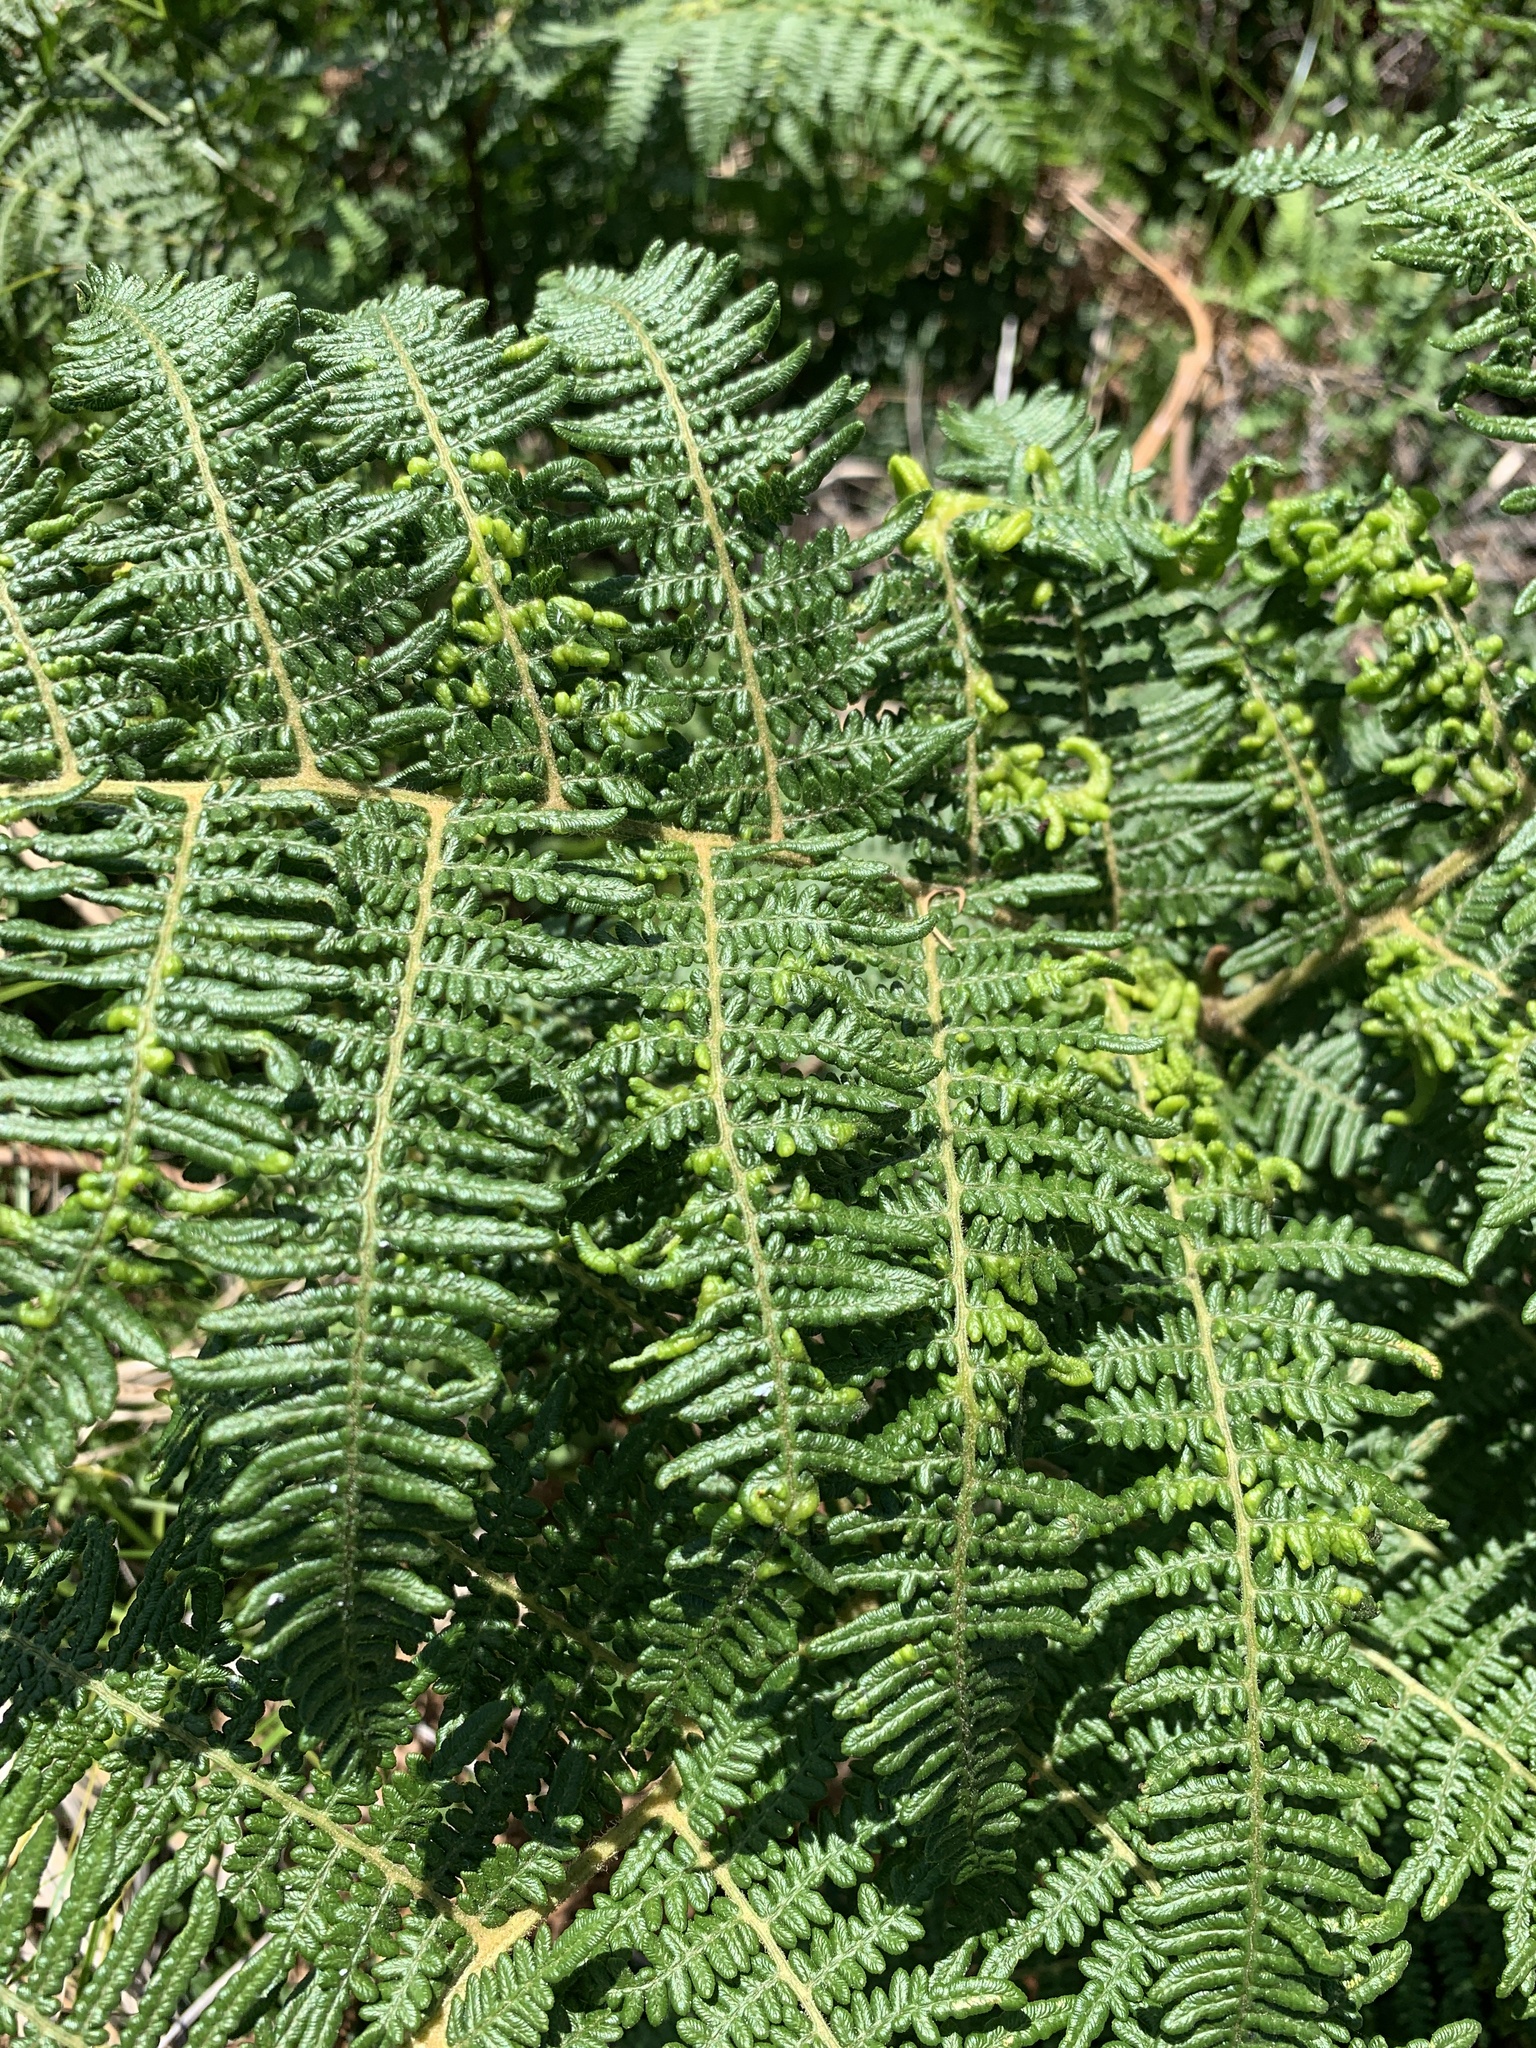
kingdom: Plantae
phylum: Tracheophyta
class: Polypodiopsida
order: Polypodiales
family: Dennstaedtiaceae
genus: Pteridium
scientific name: Pteridium aquilinum
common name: Bracken
